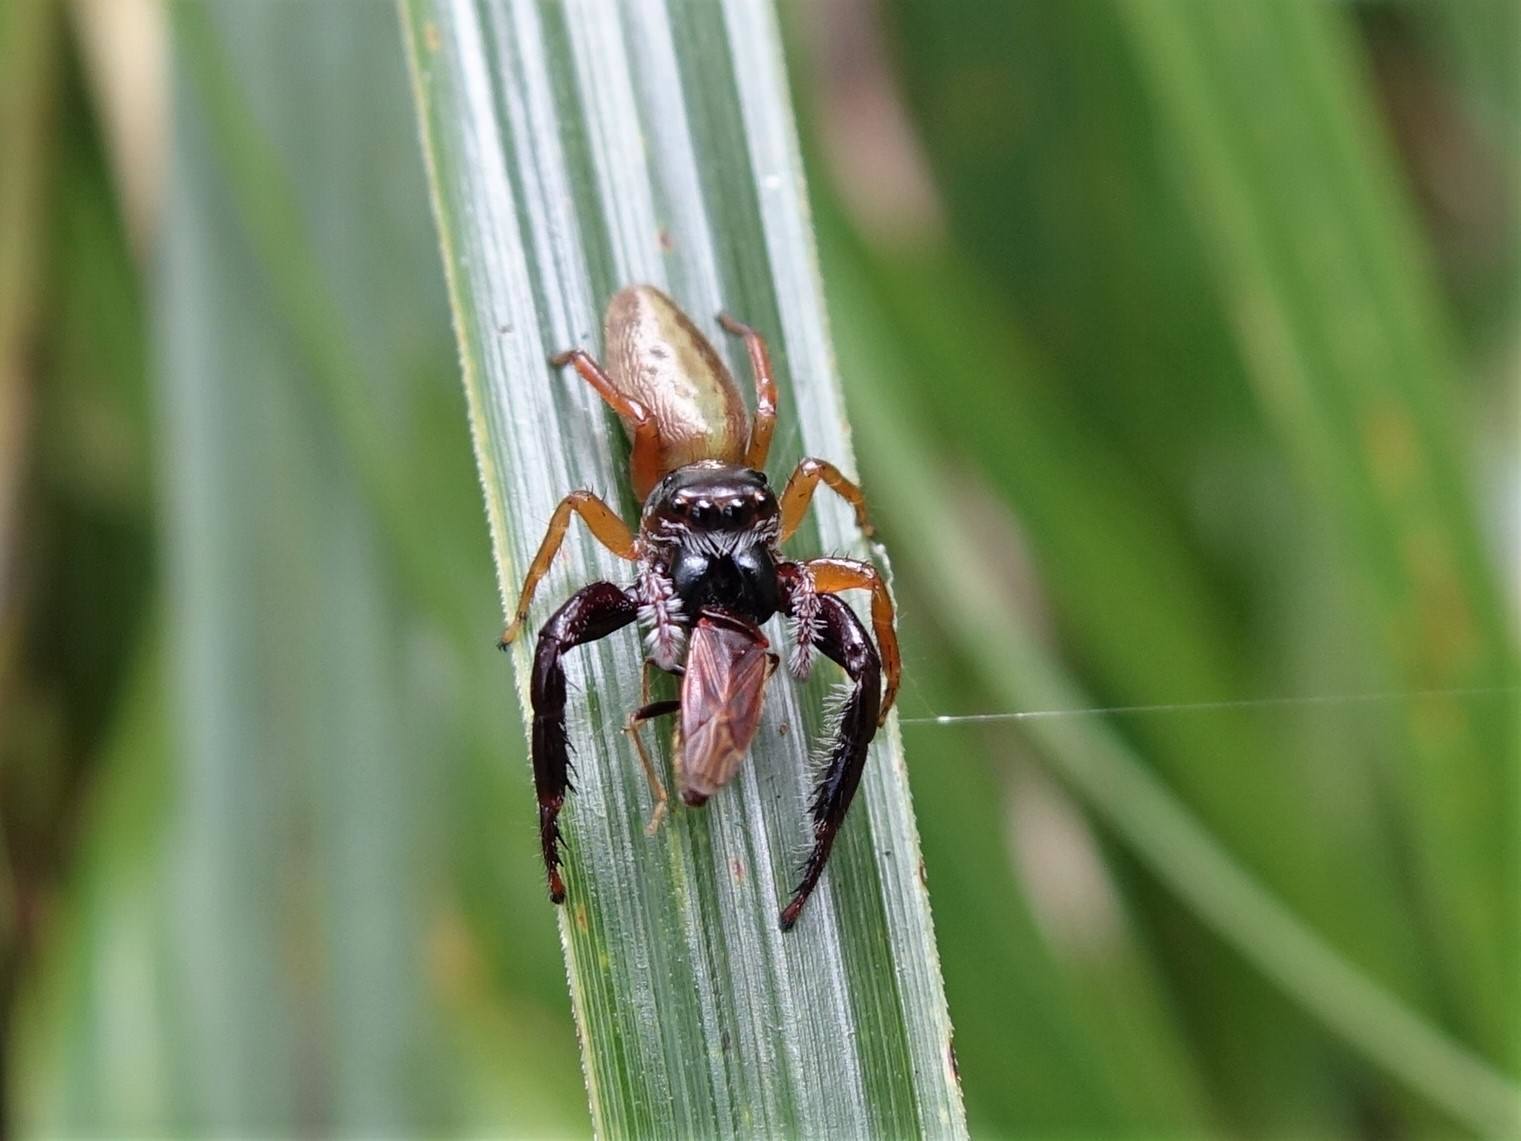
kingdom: Animalia
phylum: Arthropoda
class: Insecta
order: Hemiptera
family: Rhyparochromidae
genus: Margareta
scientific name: Margareta dominica
